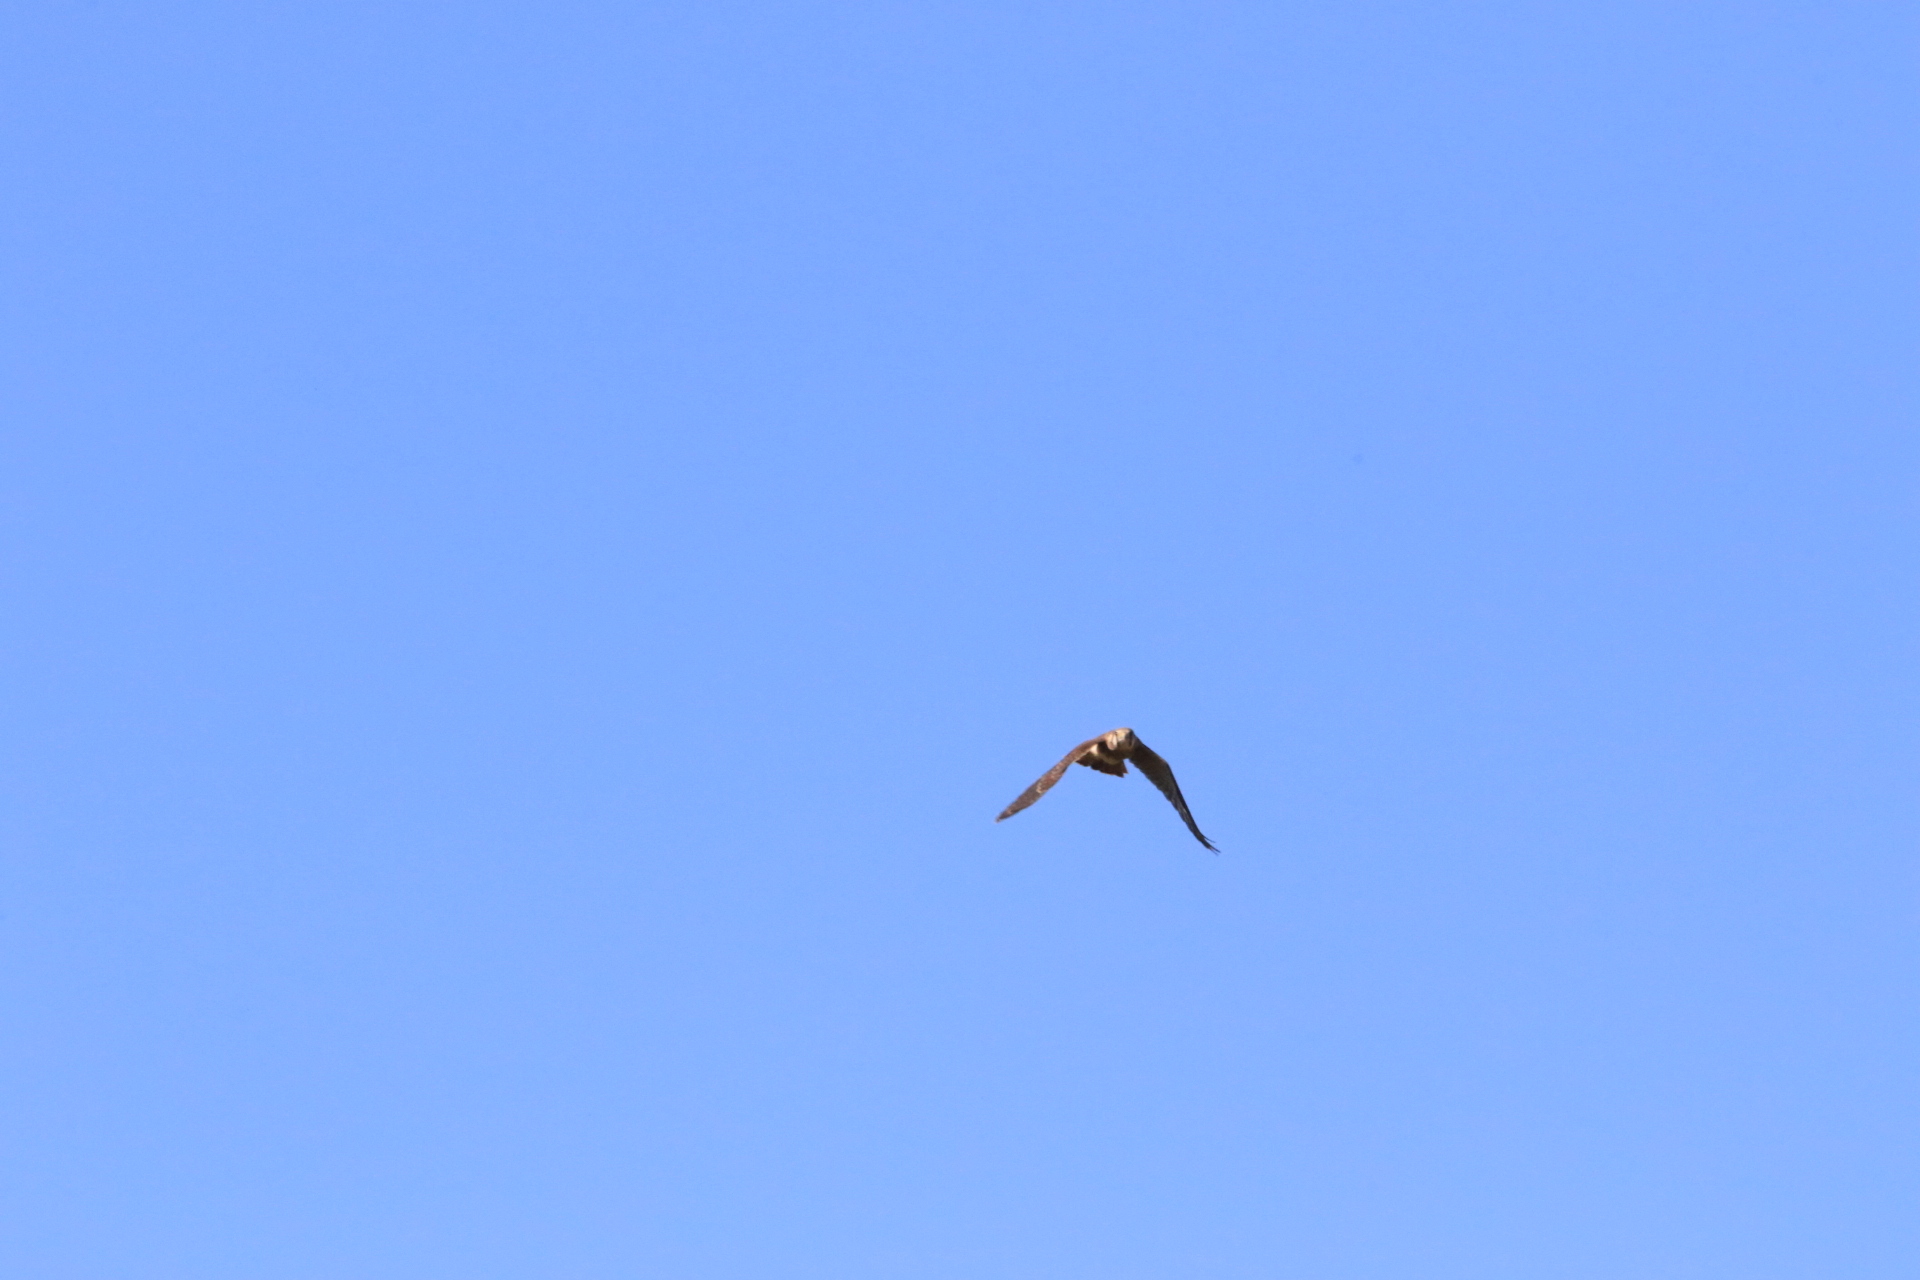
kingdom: Animalia
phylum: Chordata
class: Aves
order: Falconiformes
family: Falconidae
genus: Falco
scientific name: Falco sparverius
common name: American kestrel
